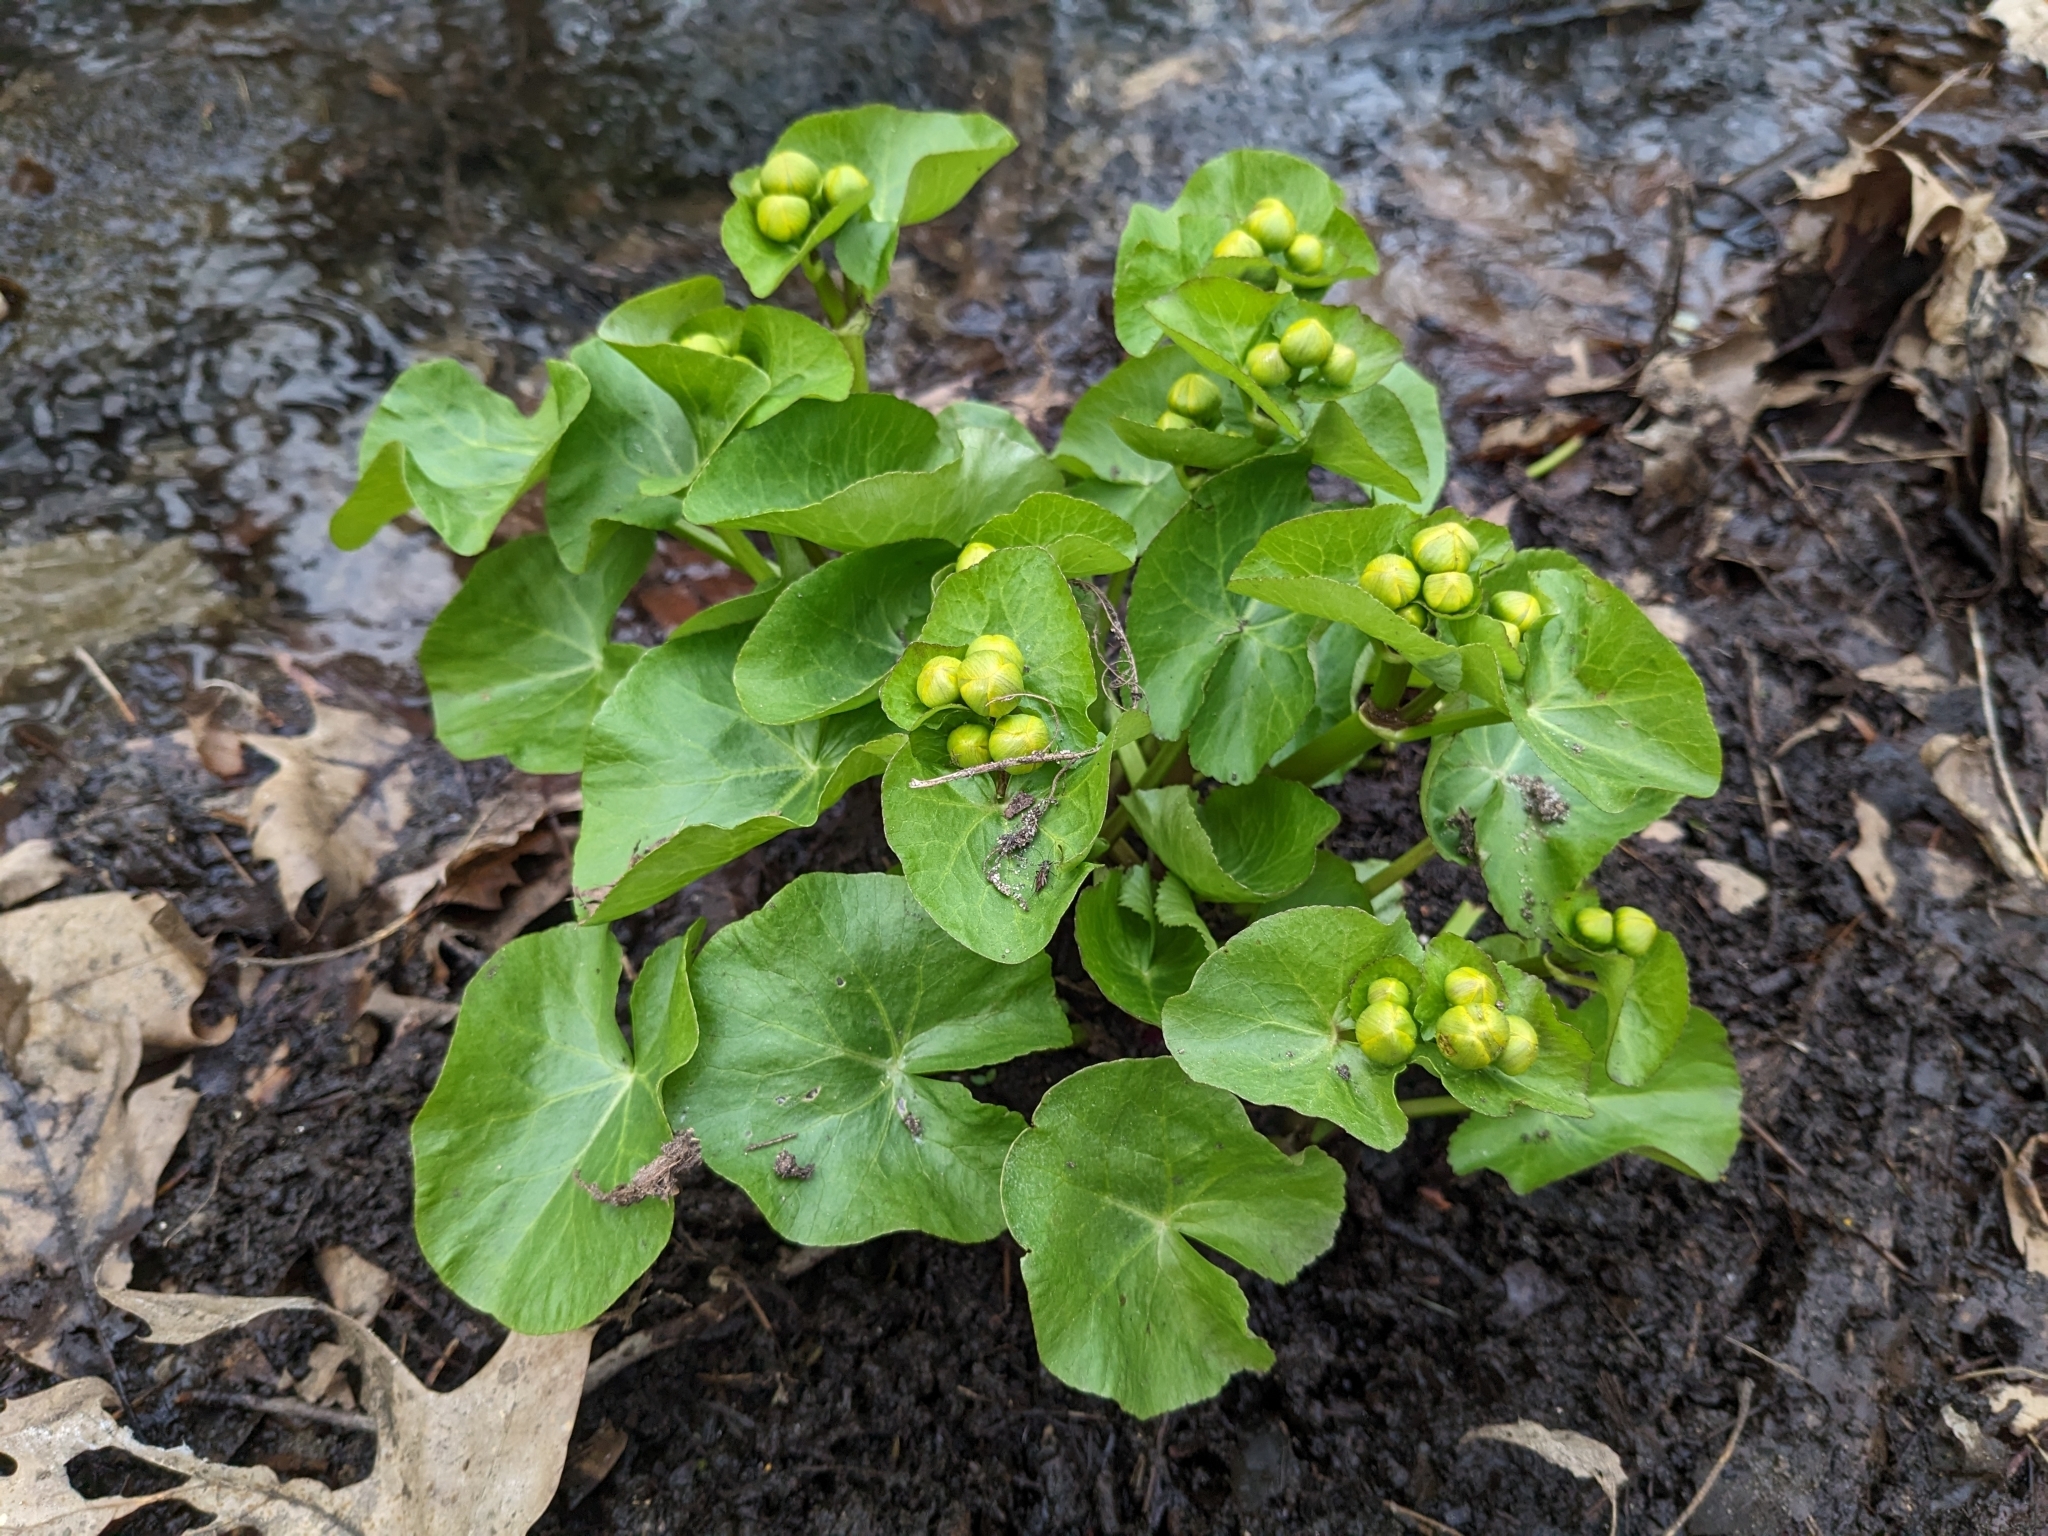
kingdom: Plantae
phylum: Tracheophyta
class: Magnoliopsida
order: Ranunculales
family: Ranunculaceae
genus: Caltha
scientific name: Caltha palustris
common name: Marsh marigold
